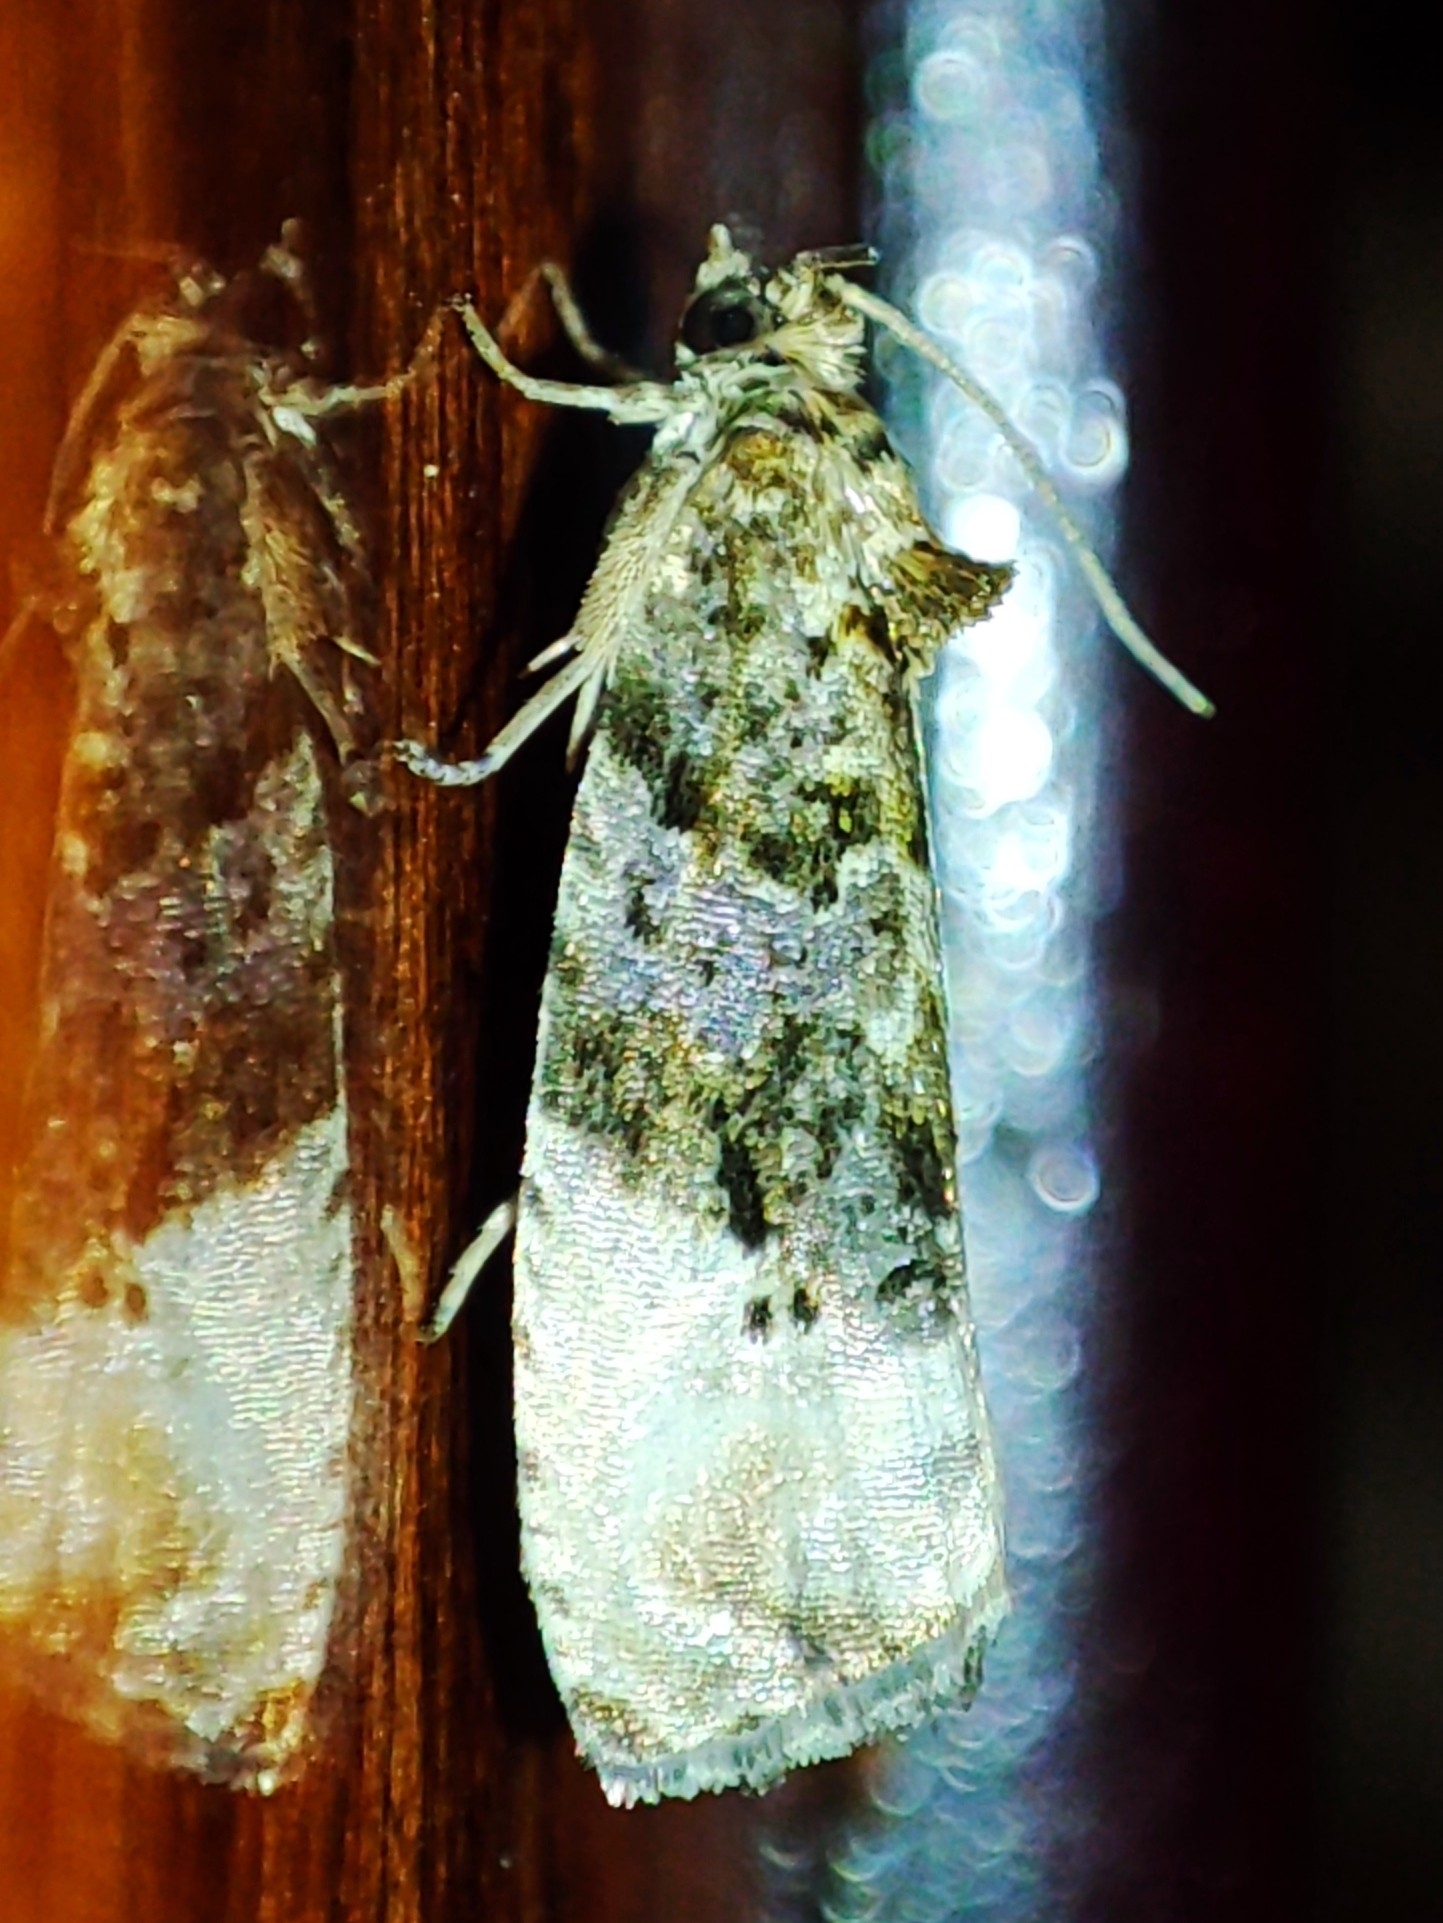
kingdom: Animalia
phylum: Arthropoda
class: Insecta
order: Lepidoptera
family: Tortricidae
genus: Hedya
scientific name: Hedya nubiferana
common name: Marbled orchard tortrix
